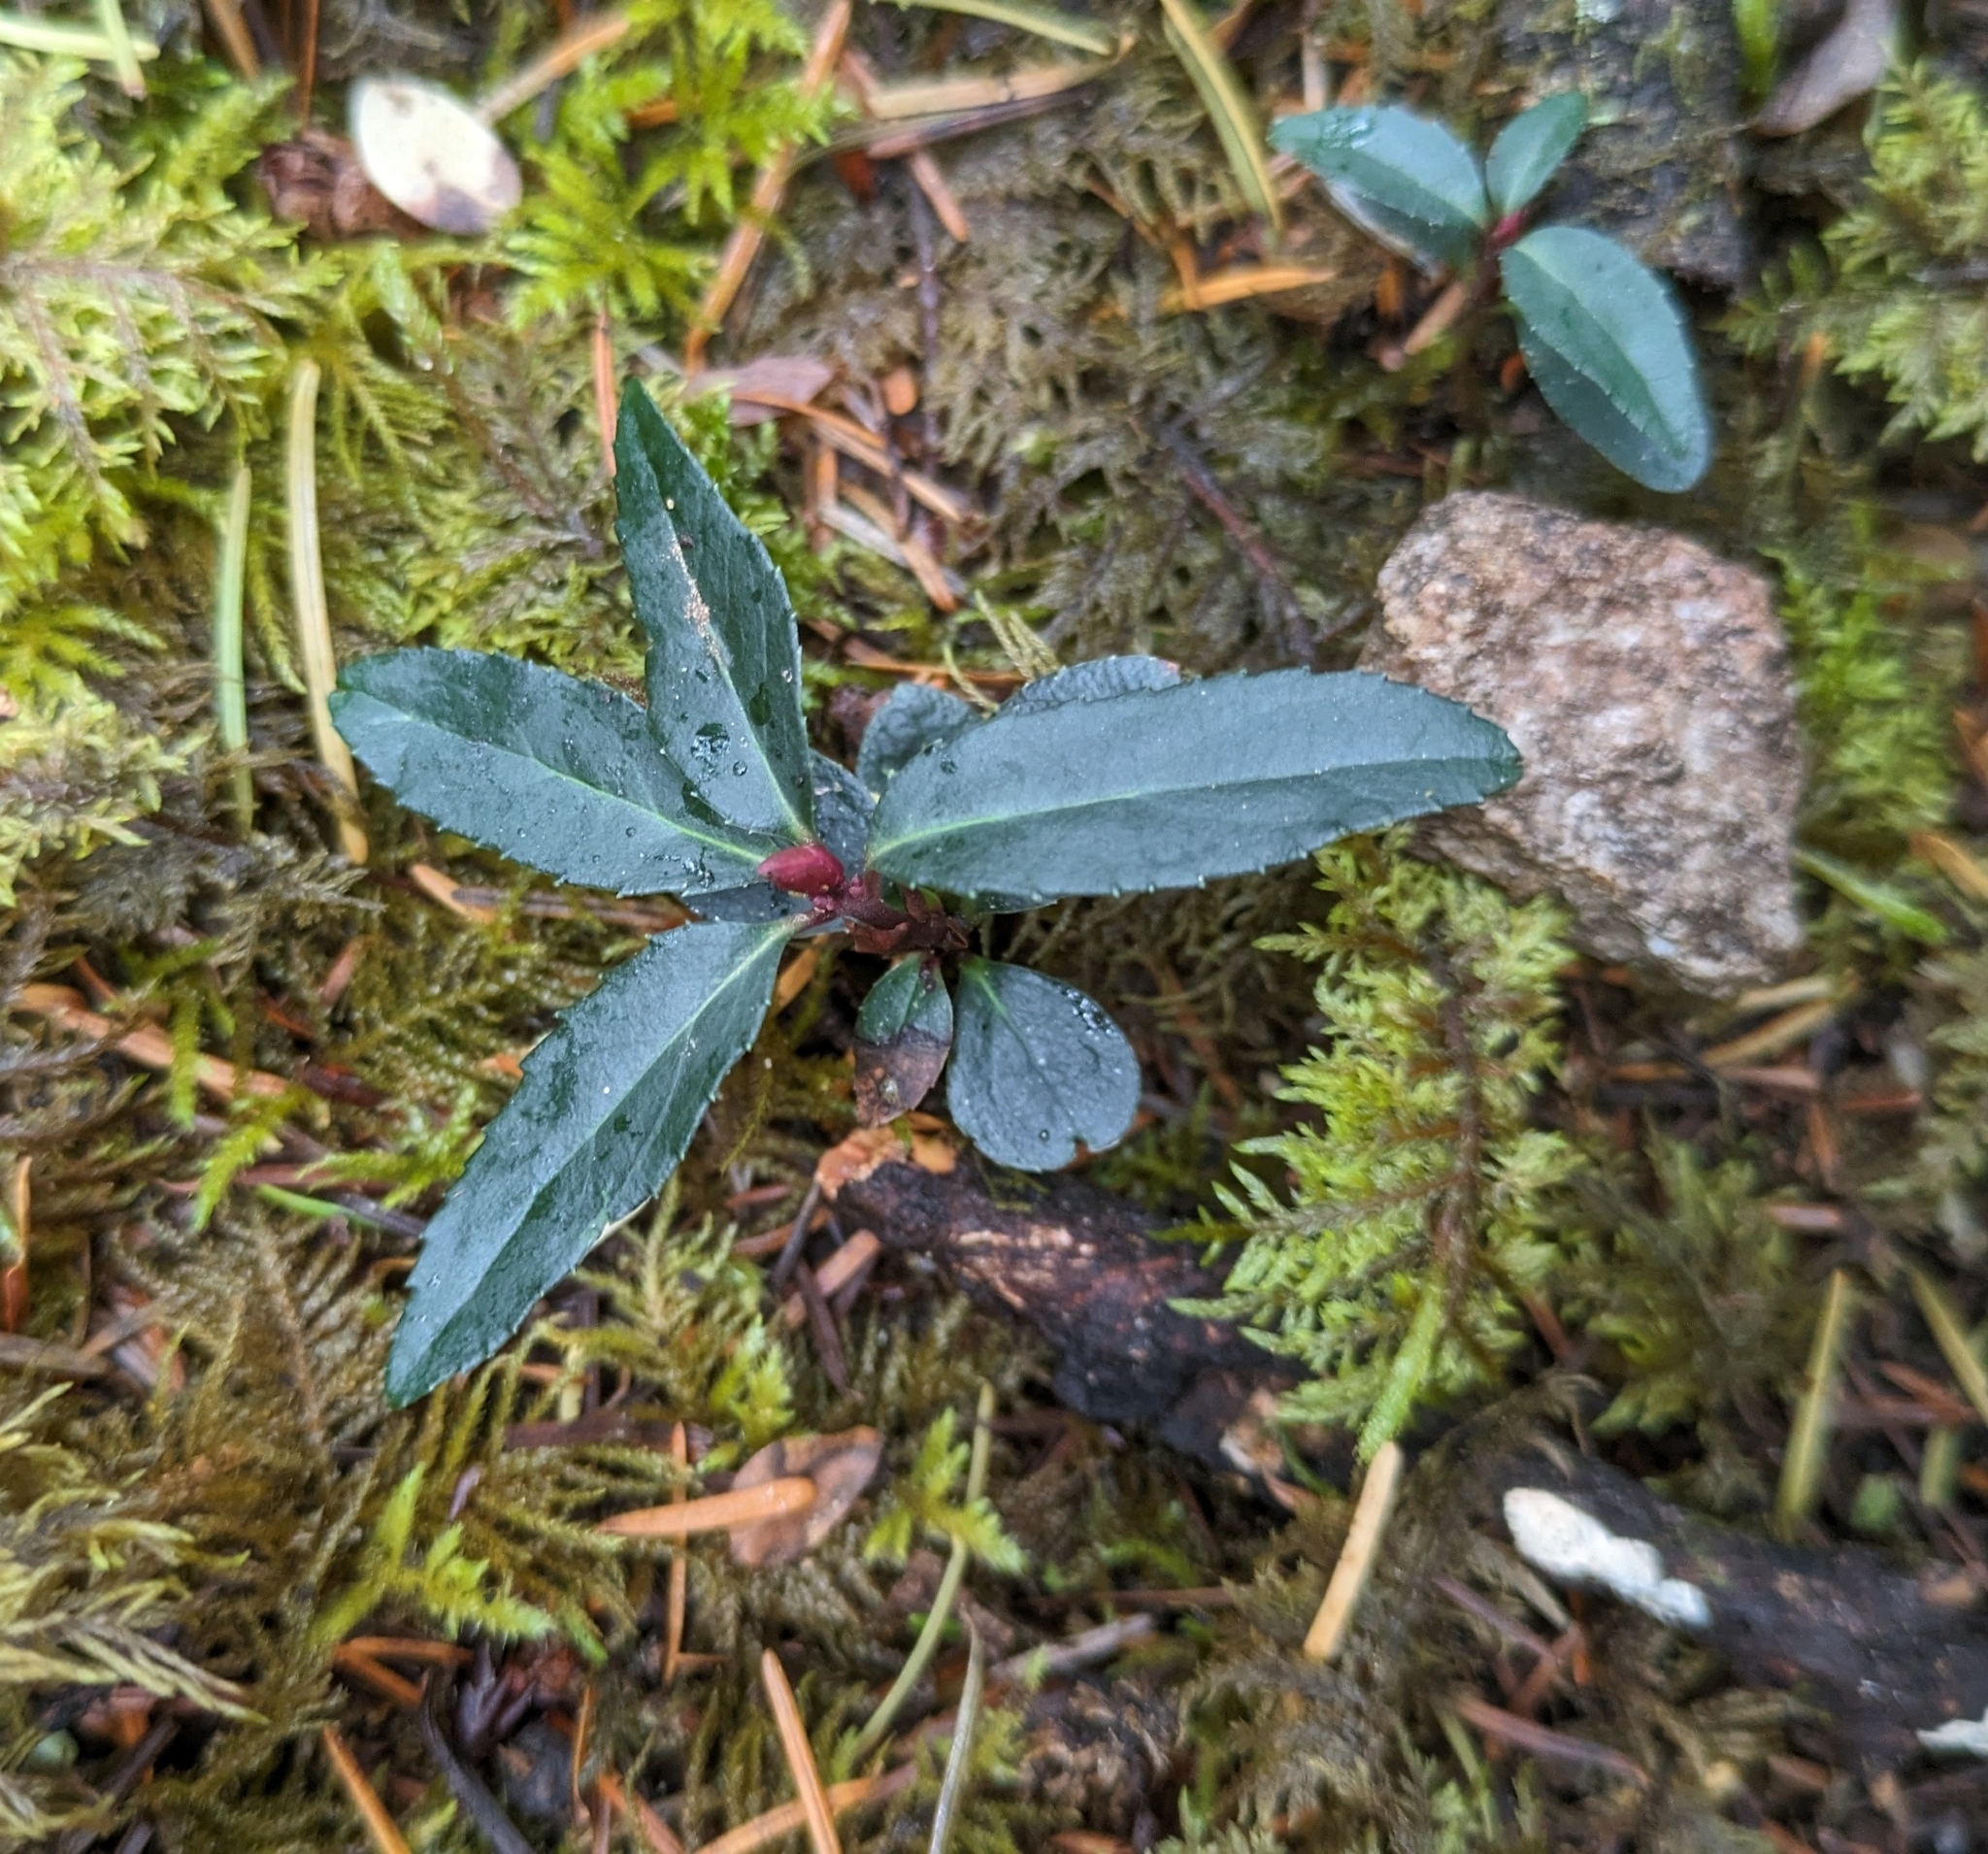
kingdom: Plantae
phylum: Tracheophyta
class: Magnoliopsida
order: Ericales
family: Ericaceae
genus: Chimaphila
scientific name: Chimaphila menziesii
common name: Menzies' pipsissewa
